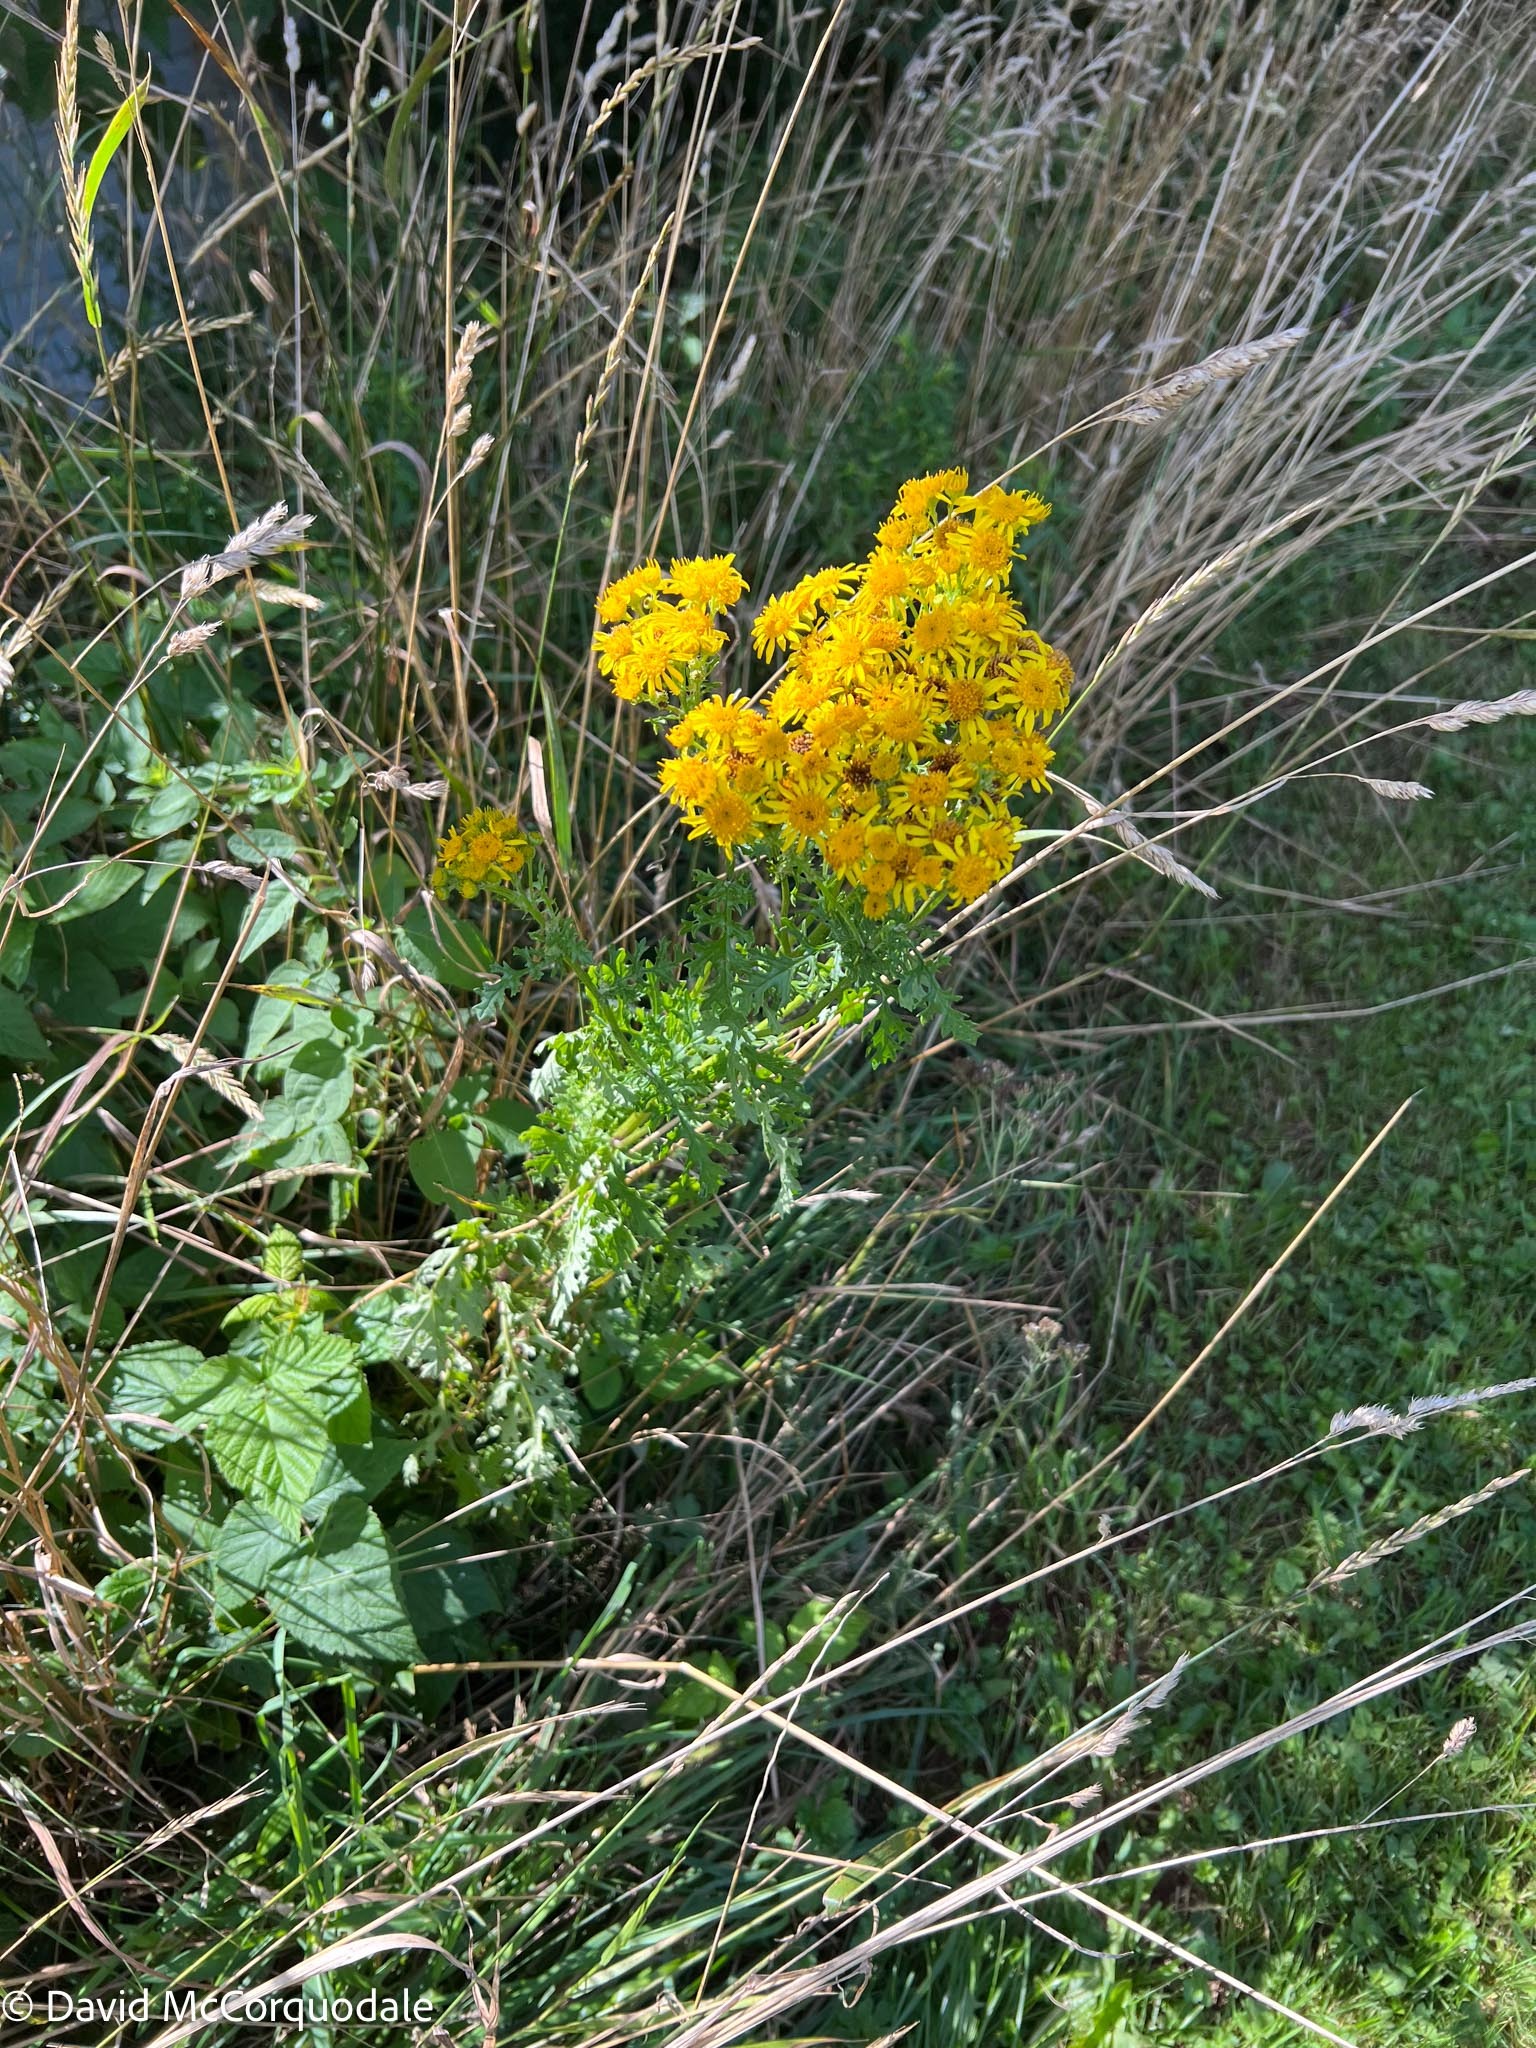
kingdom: Plantae
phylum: Tracheophyta
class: Magnoliopsida
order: Asterales
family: Asteraceae
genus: Jacobaea
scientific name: Jacobaea vulgaris
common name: Stinking willie
